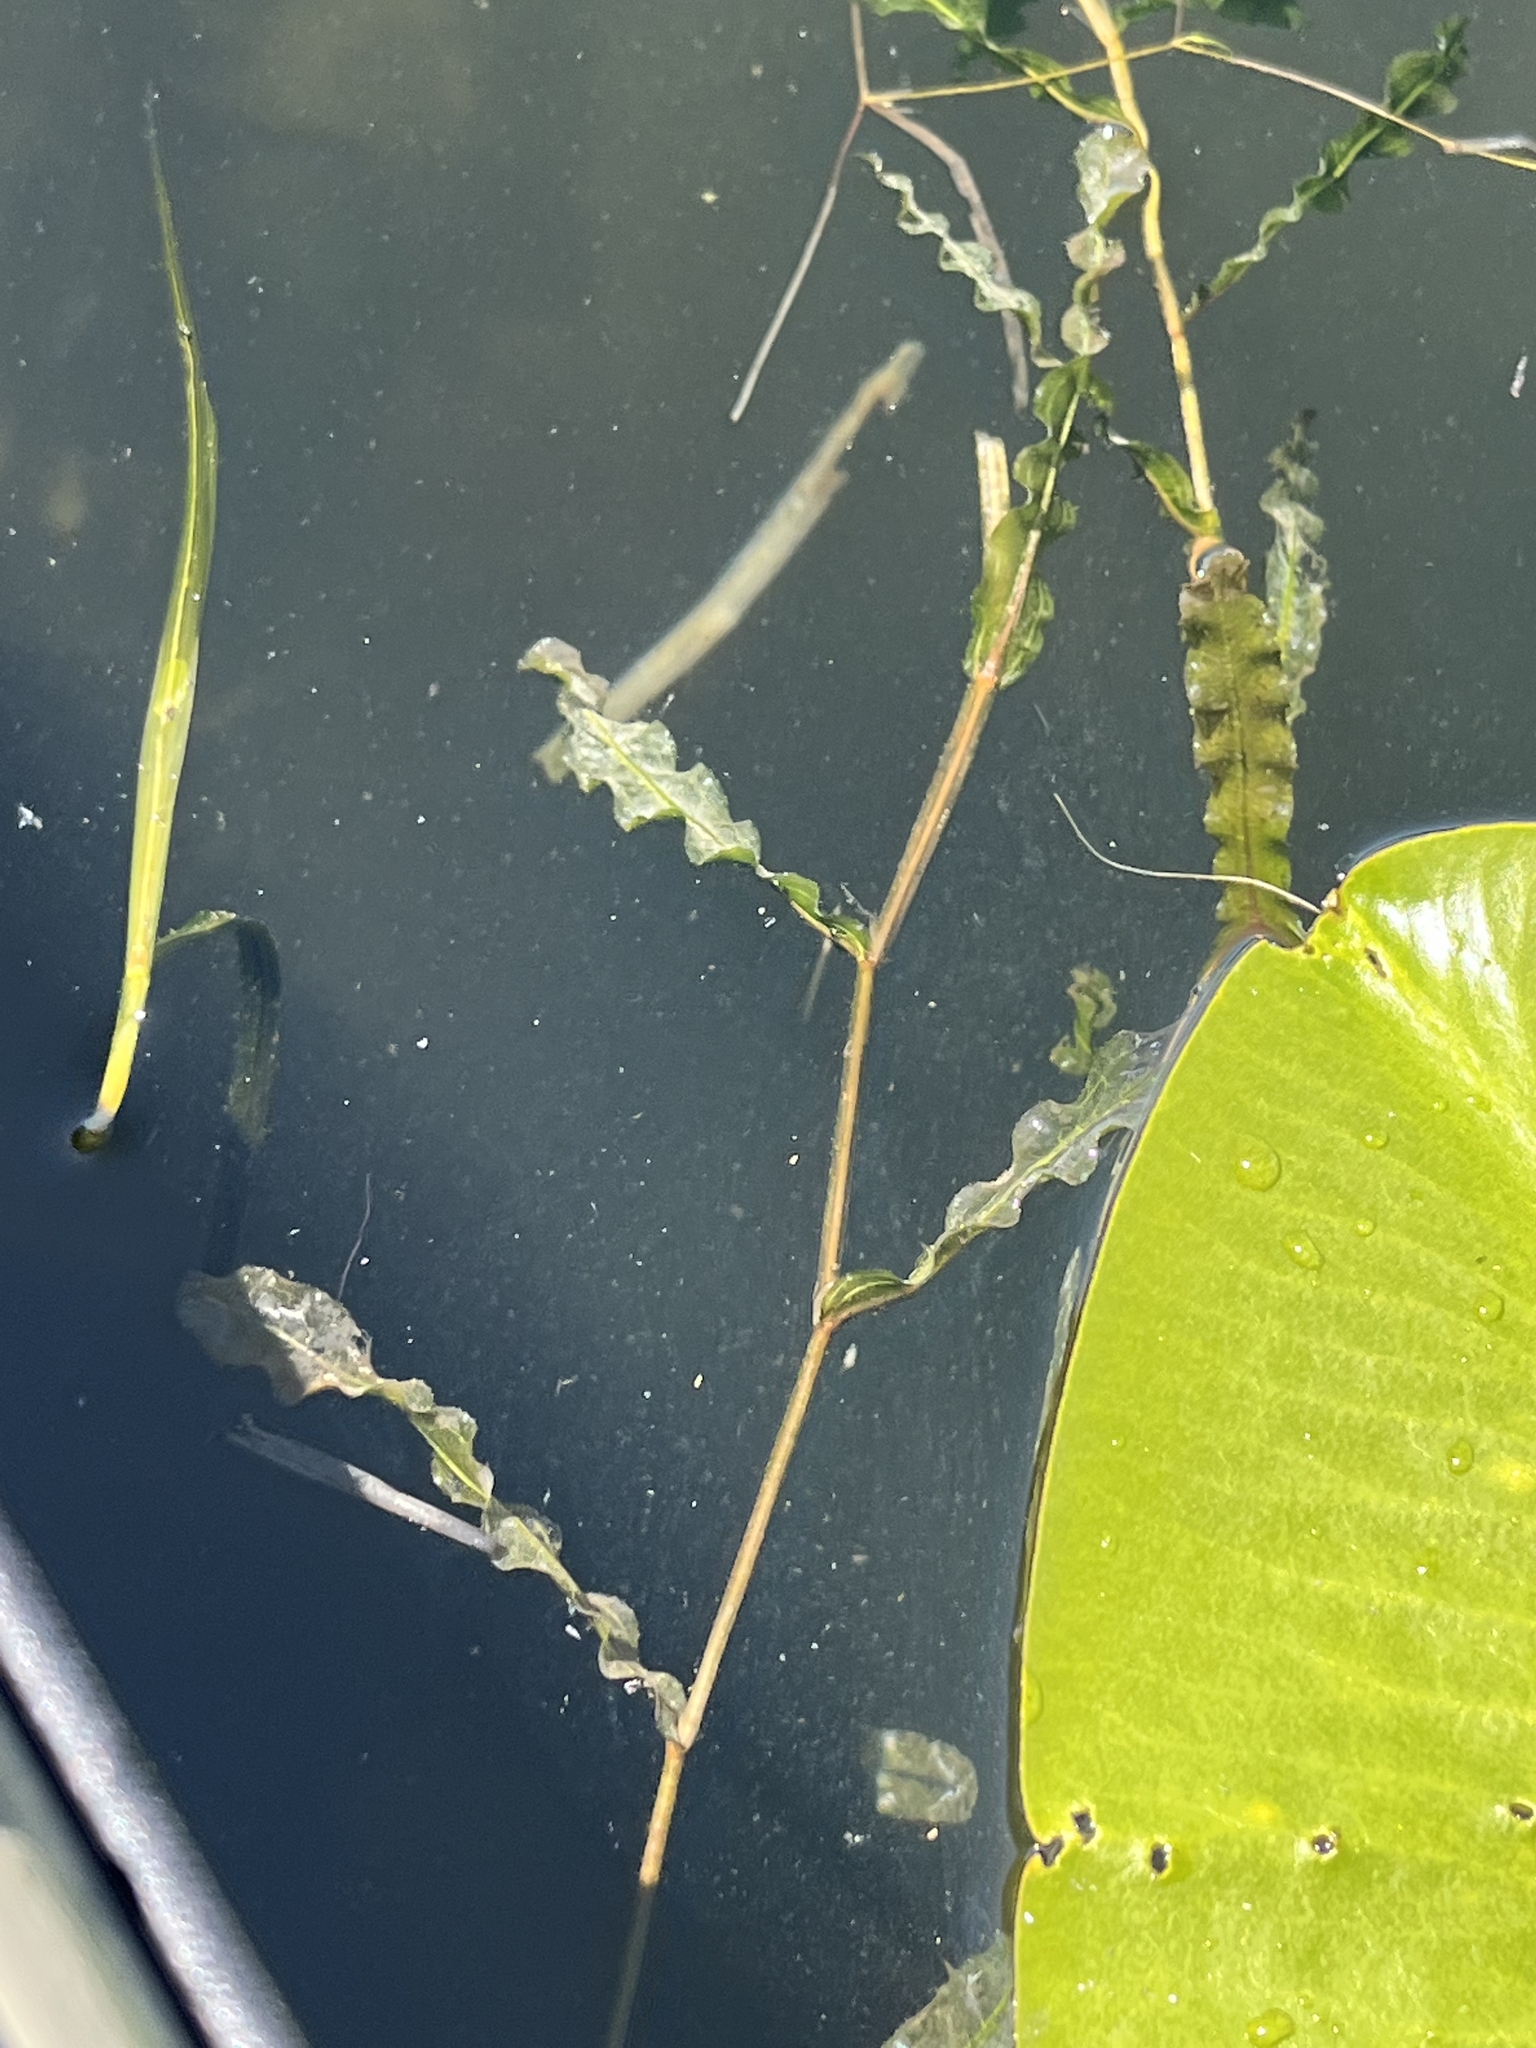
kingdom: Plantae
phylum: Tracheophyta
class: Liliopsida
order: Alismatales
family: Potamogetonaceae
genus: Potamogeton
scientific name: Potamogeton crispus
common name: Curled pondweed
